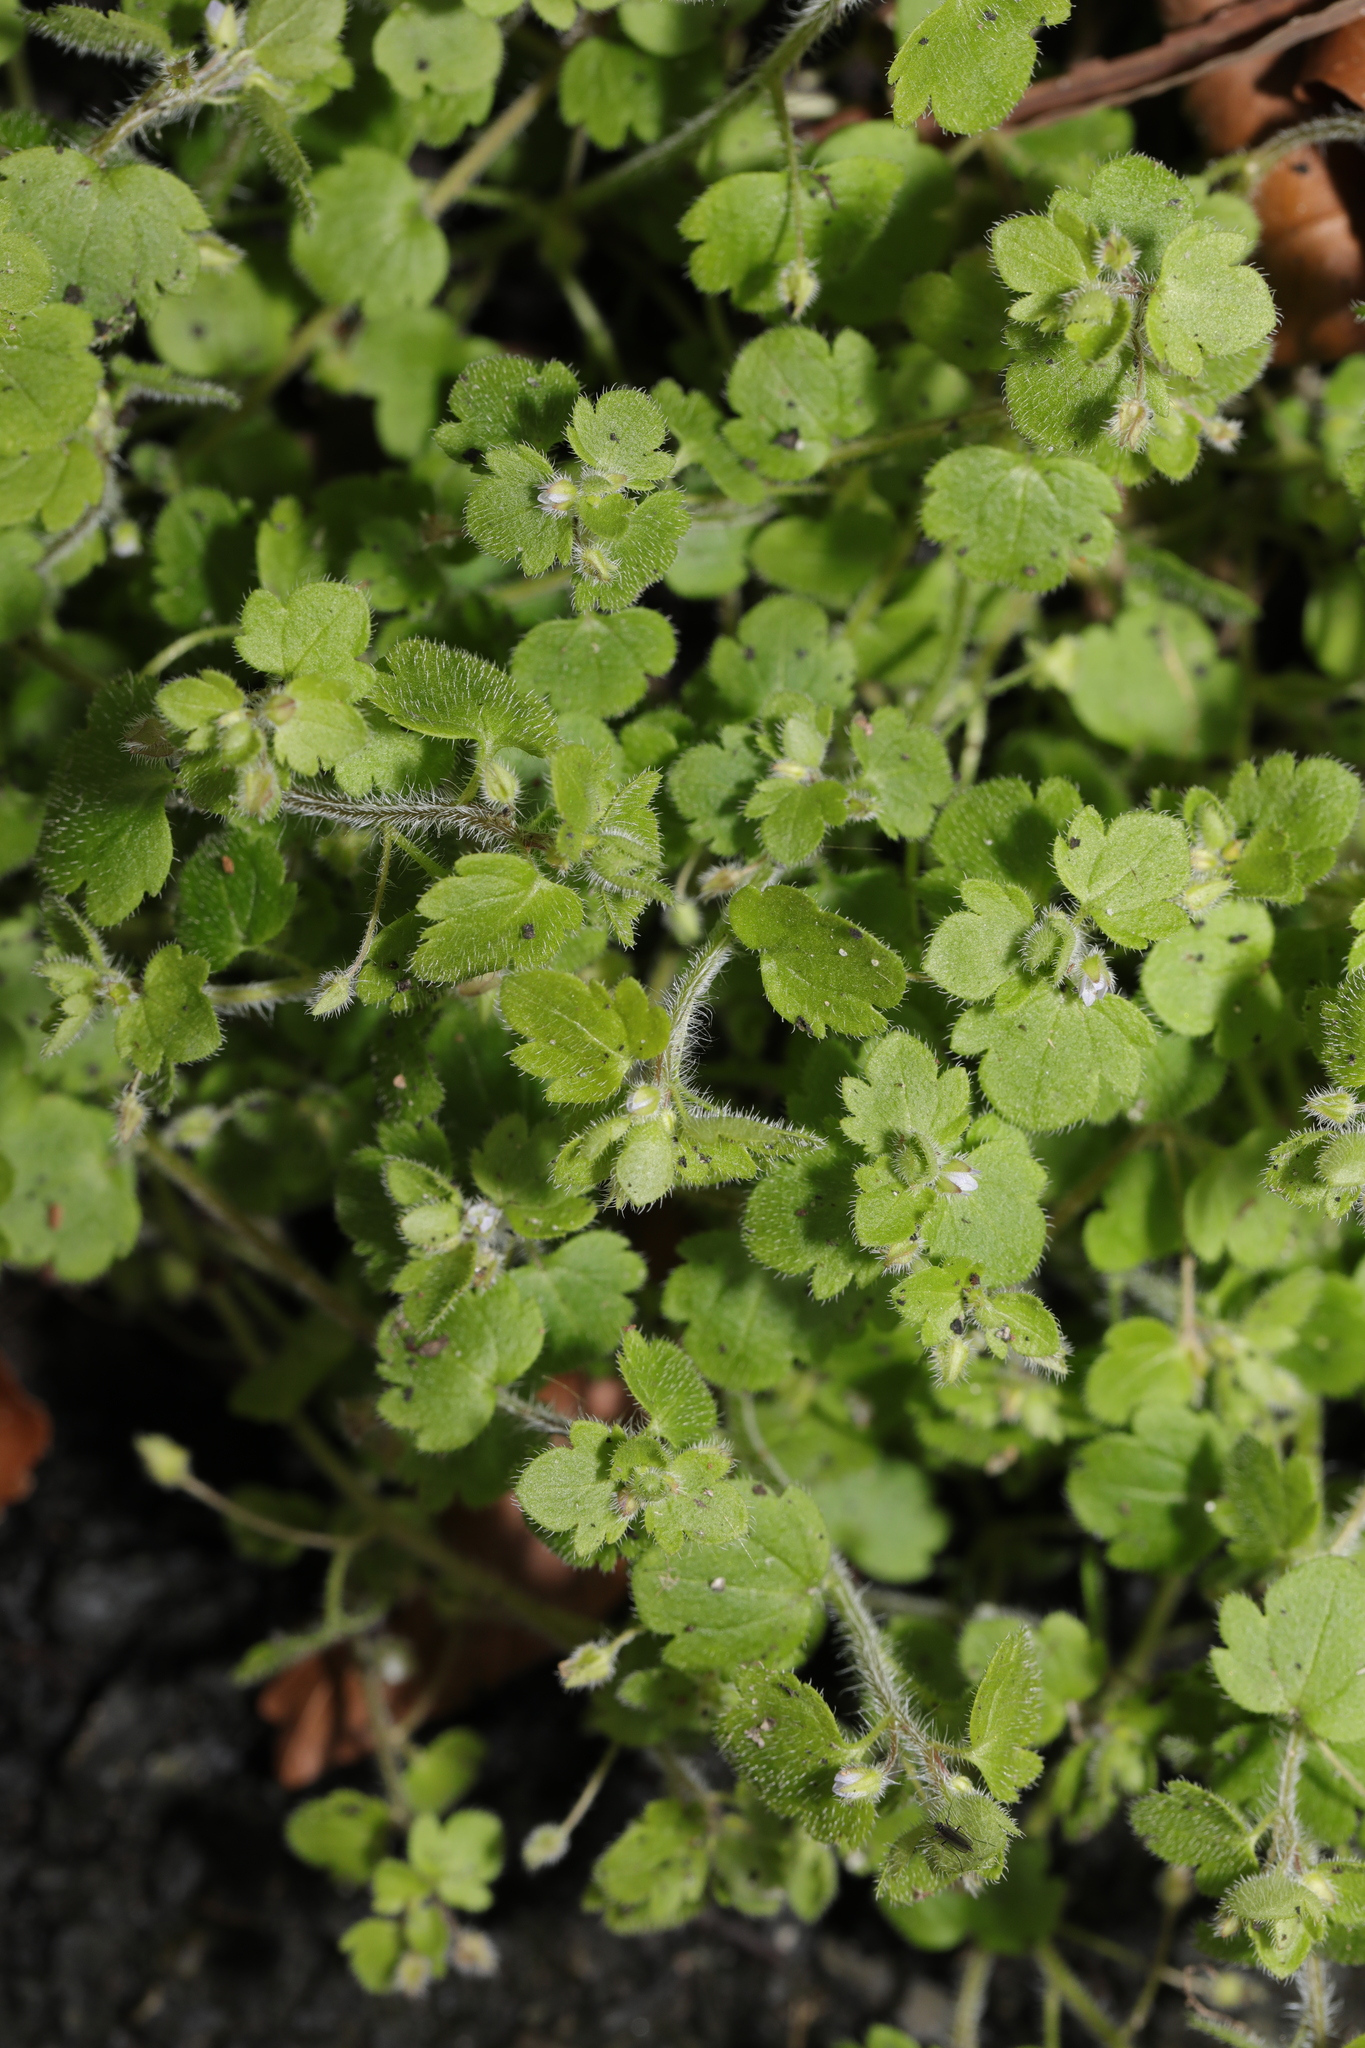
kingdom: Plantae
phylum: Tracheophyta
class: Magnoliopsida
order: Lamiales
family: Plantaginaceae
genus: Veronica
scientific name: Veronica sublobata
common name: False ivy-leaved speedwell
